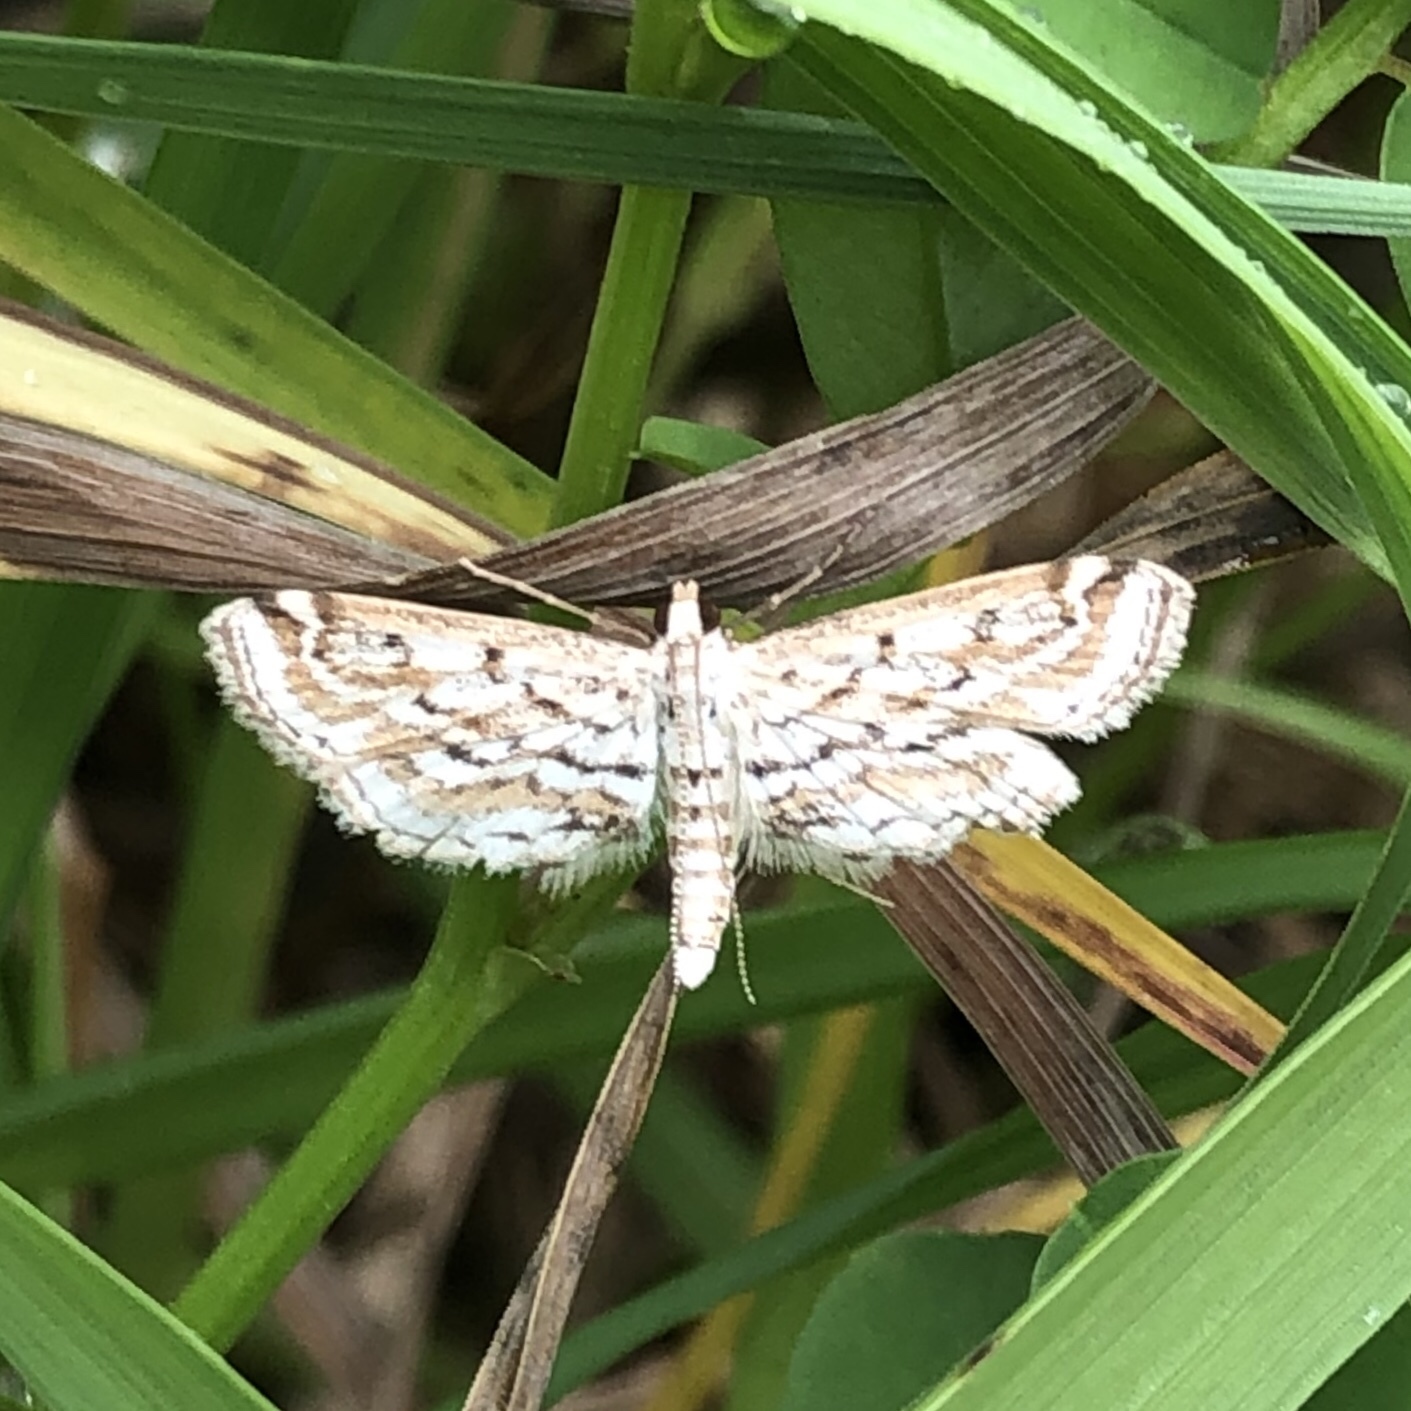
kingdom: Animalia
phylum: Arthropoda
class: Insecta
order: Lepidoptera
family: Crambidae
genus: Parapoynx
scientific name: Parapoynx allionealis
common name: Bladderwort casemaker
